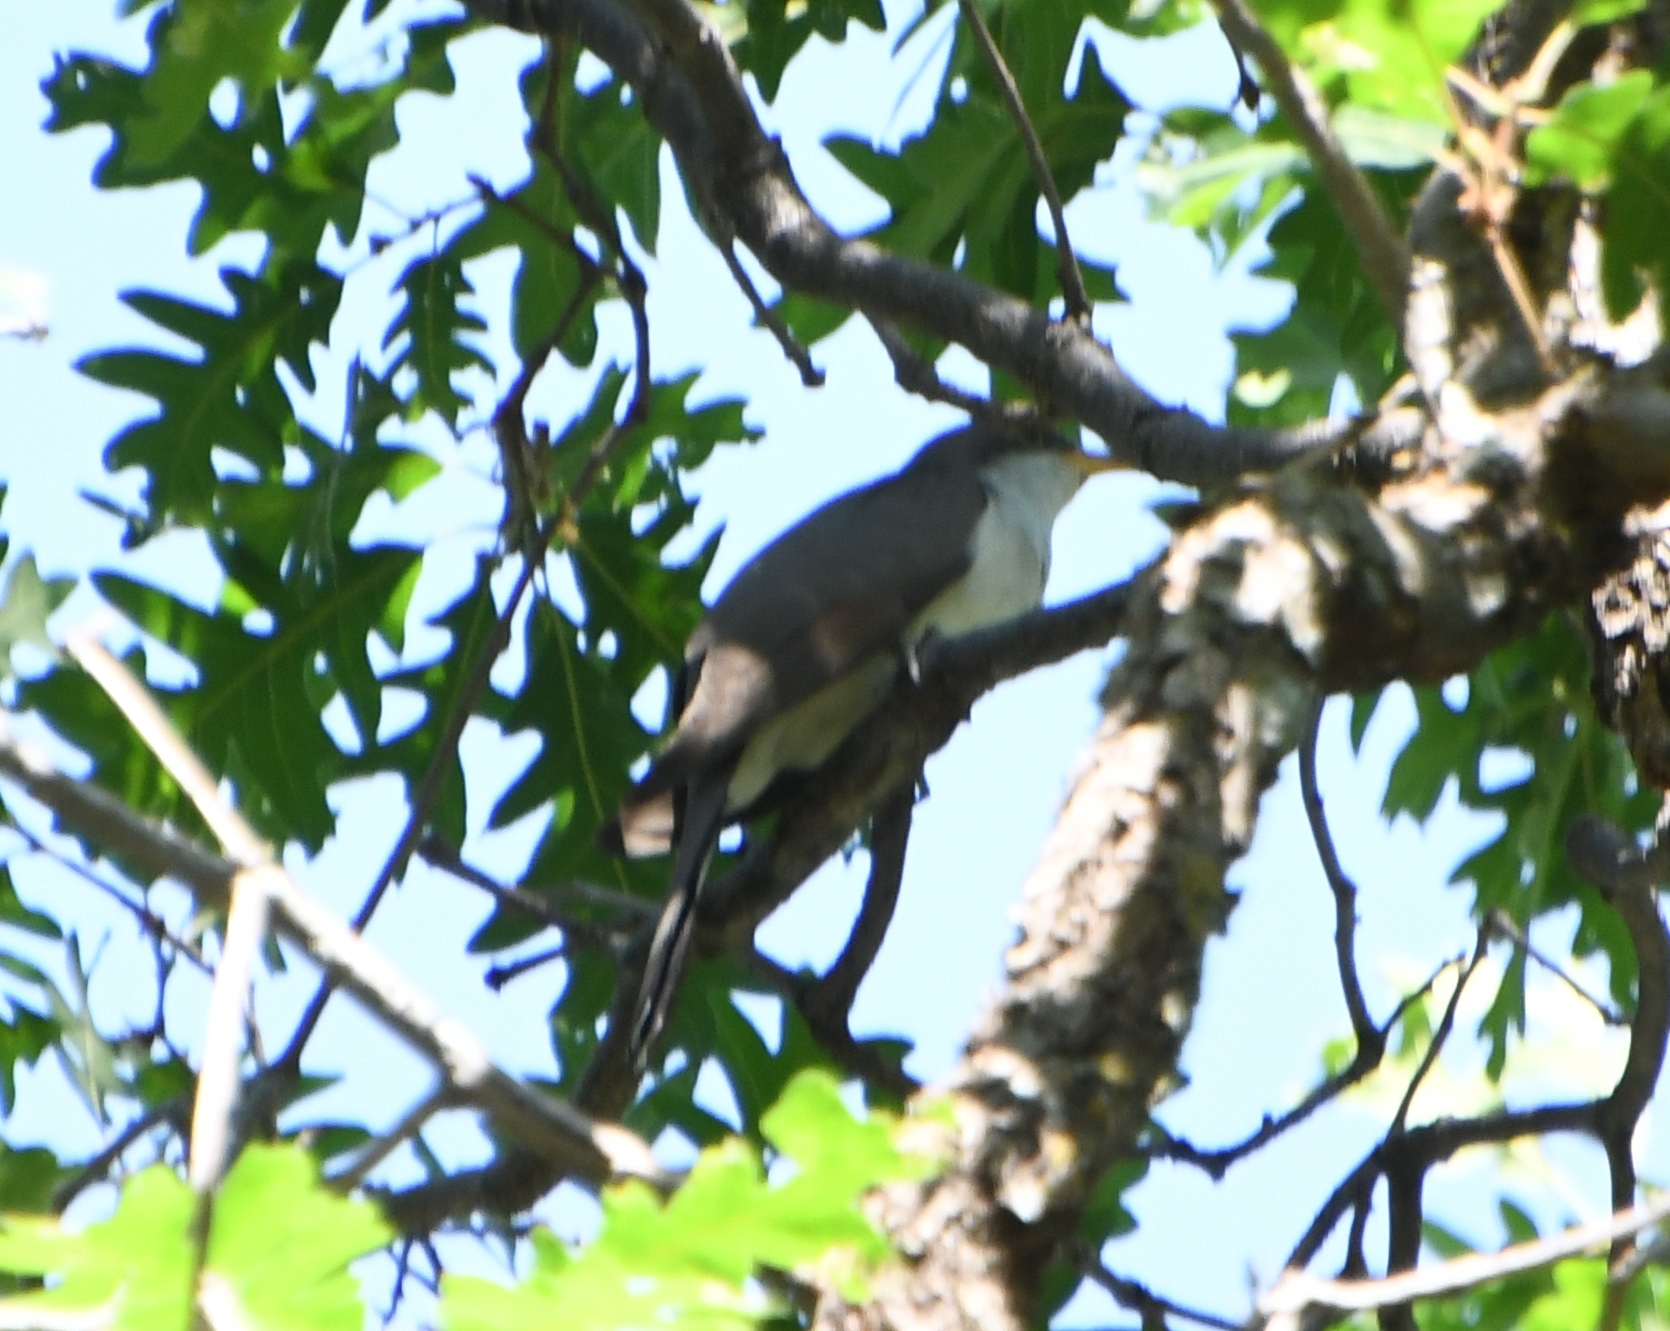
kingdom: Animalia
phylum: Chordata
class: Aves
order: Cuculiformes
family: Cuculidae
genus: Coccyzus
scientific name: Coccyzus americanus
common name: Yellow-billed cuckoo
